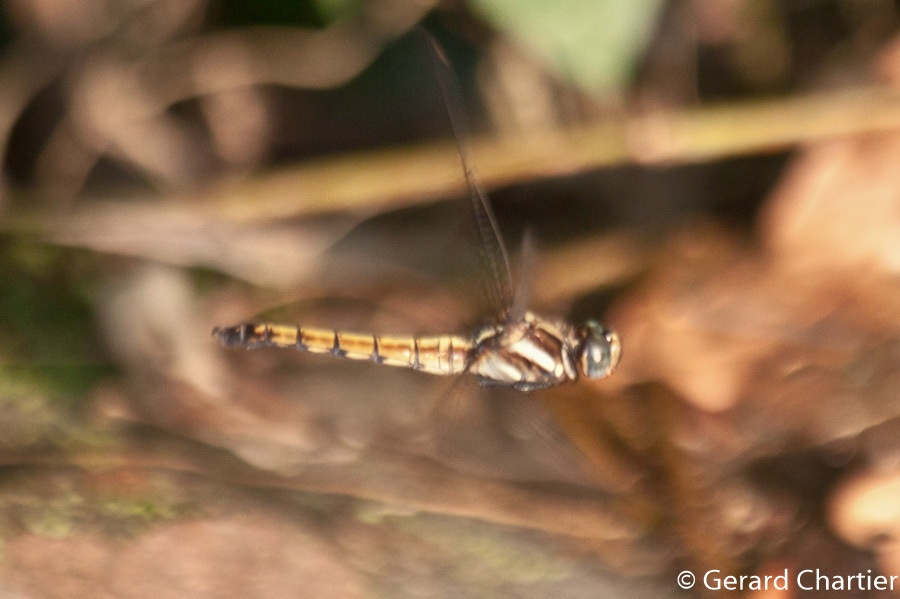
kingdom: Animalia
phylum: Arthropoda
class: Insecta
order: Odonata
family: Libellulidae
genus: Orthetrum
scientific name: Orthetrum glaucum
